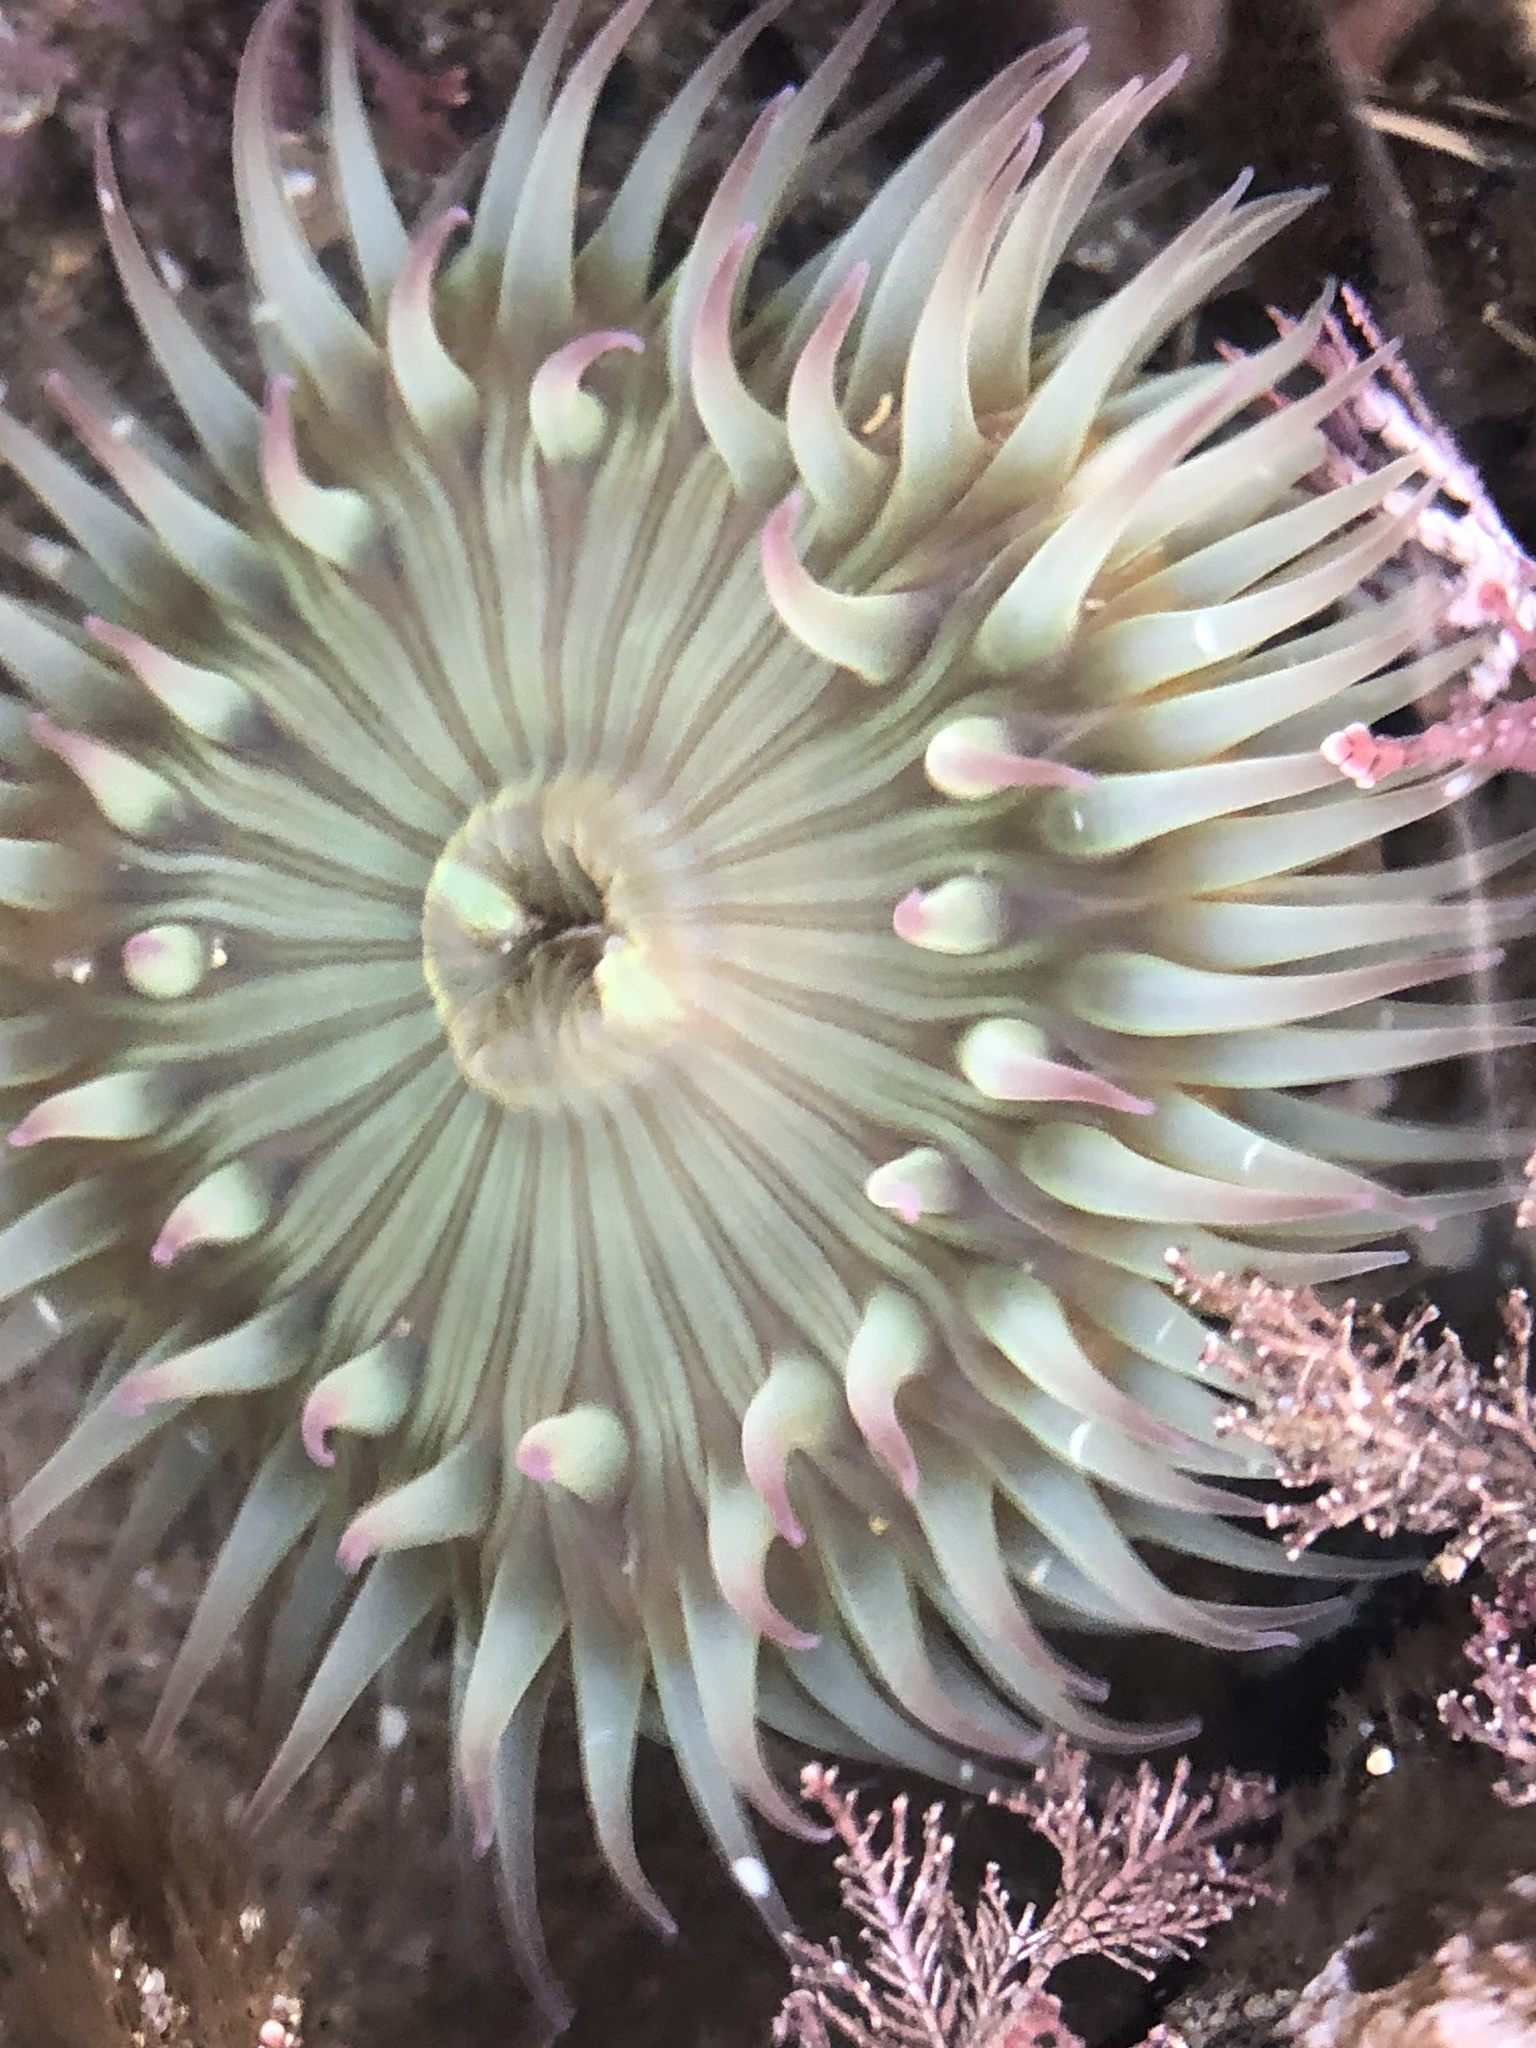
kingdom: Animalia
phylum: Cnidaria
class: Anthozoa
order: Actiniaria
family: Actiniidae
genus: Anthopleura
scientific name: Anthopleura sola
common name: Sun anemone
